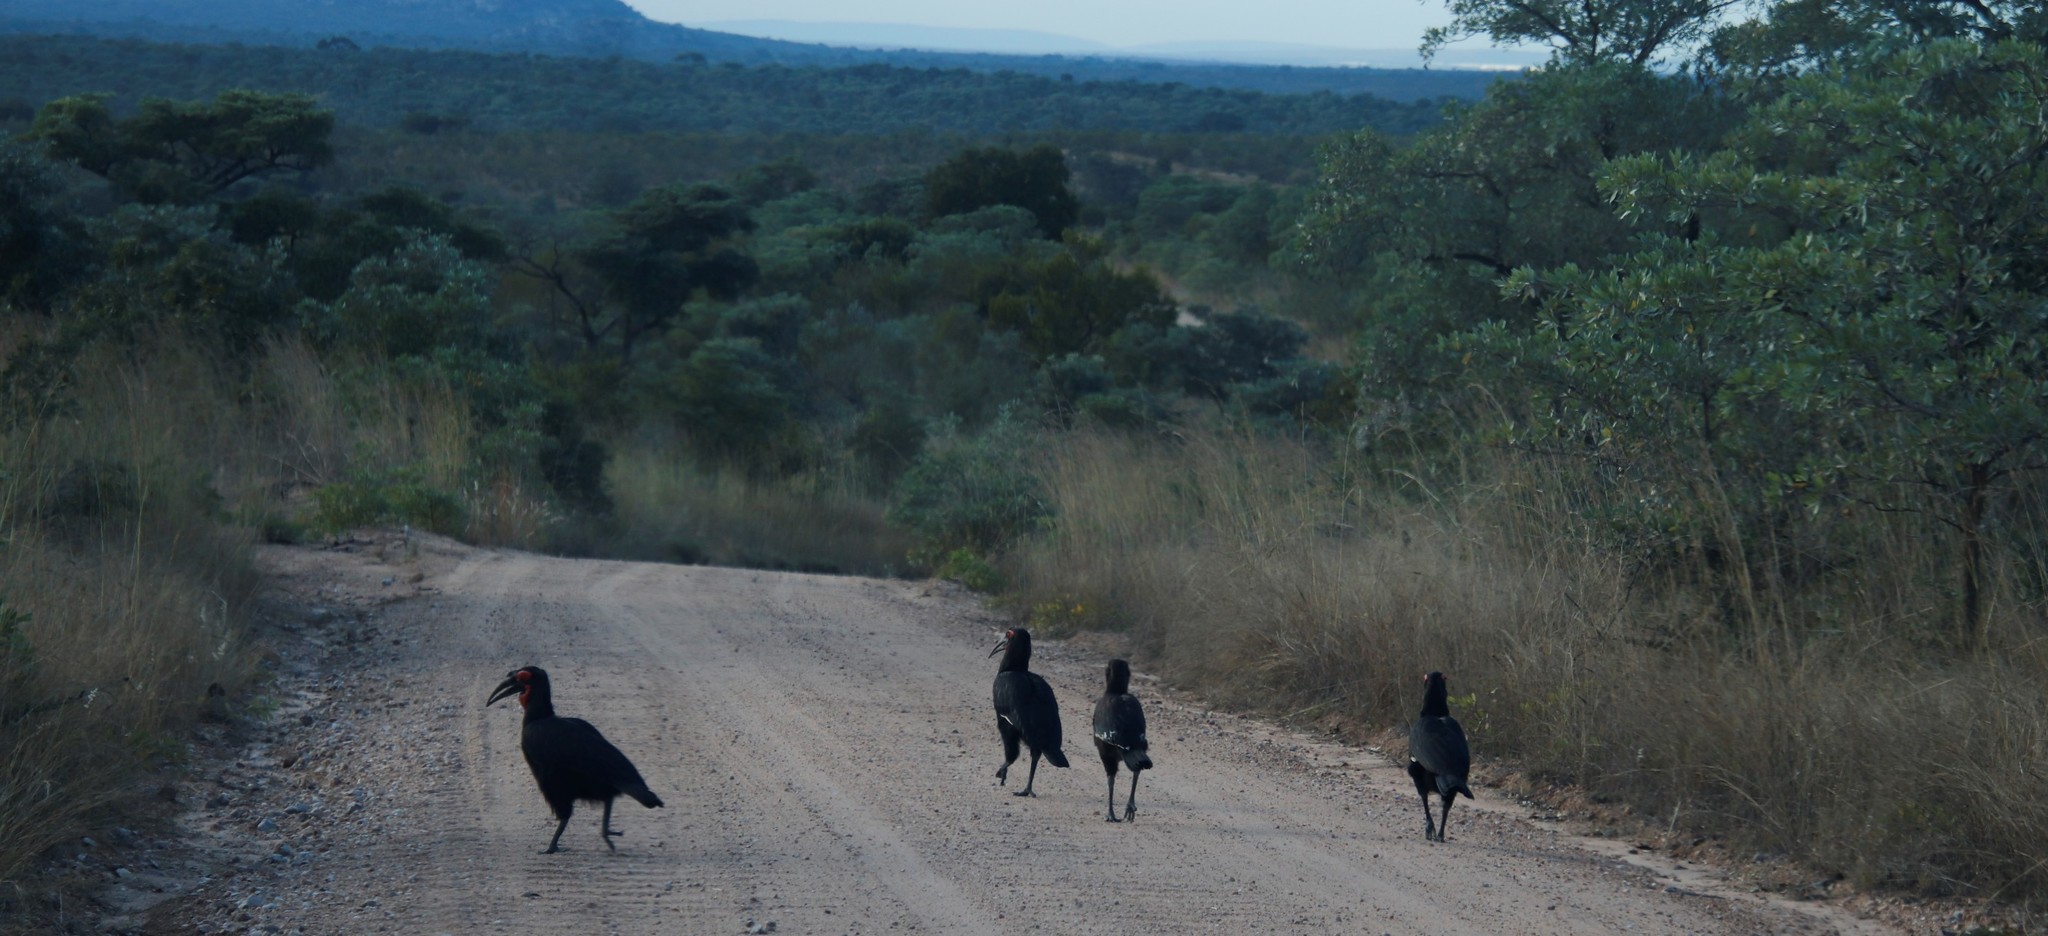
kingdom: Animalia
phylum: Chordata
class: Aves
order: Bucerotiformes
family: Bucorvidae
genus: Bucorvus
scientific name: Bucorvus leadbeateri
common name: Southern ground-hornbill
